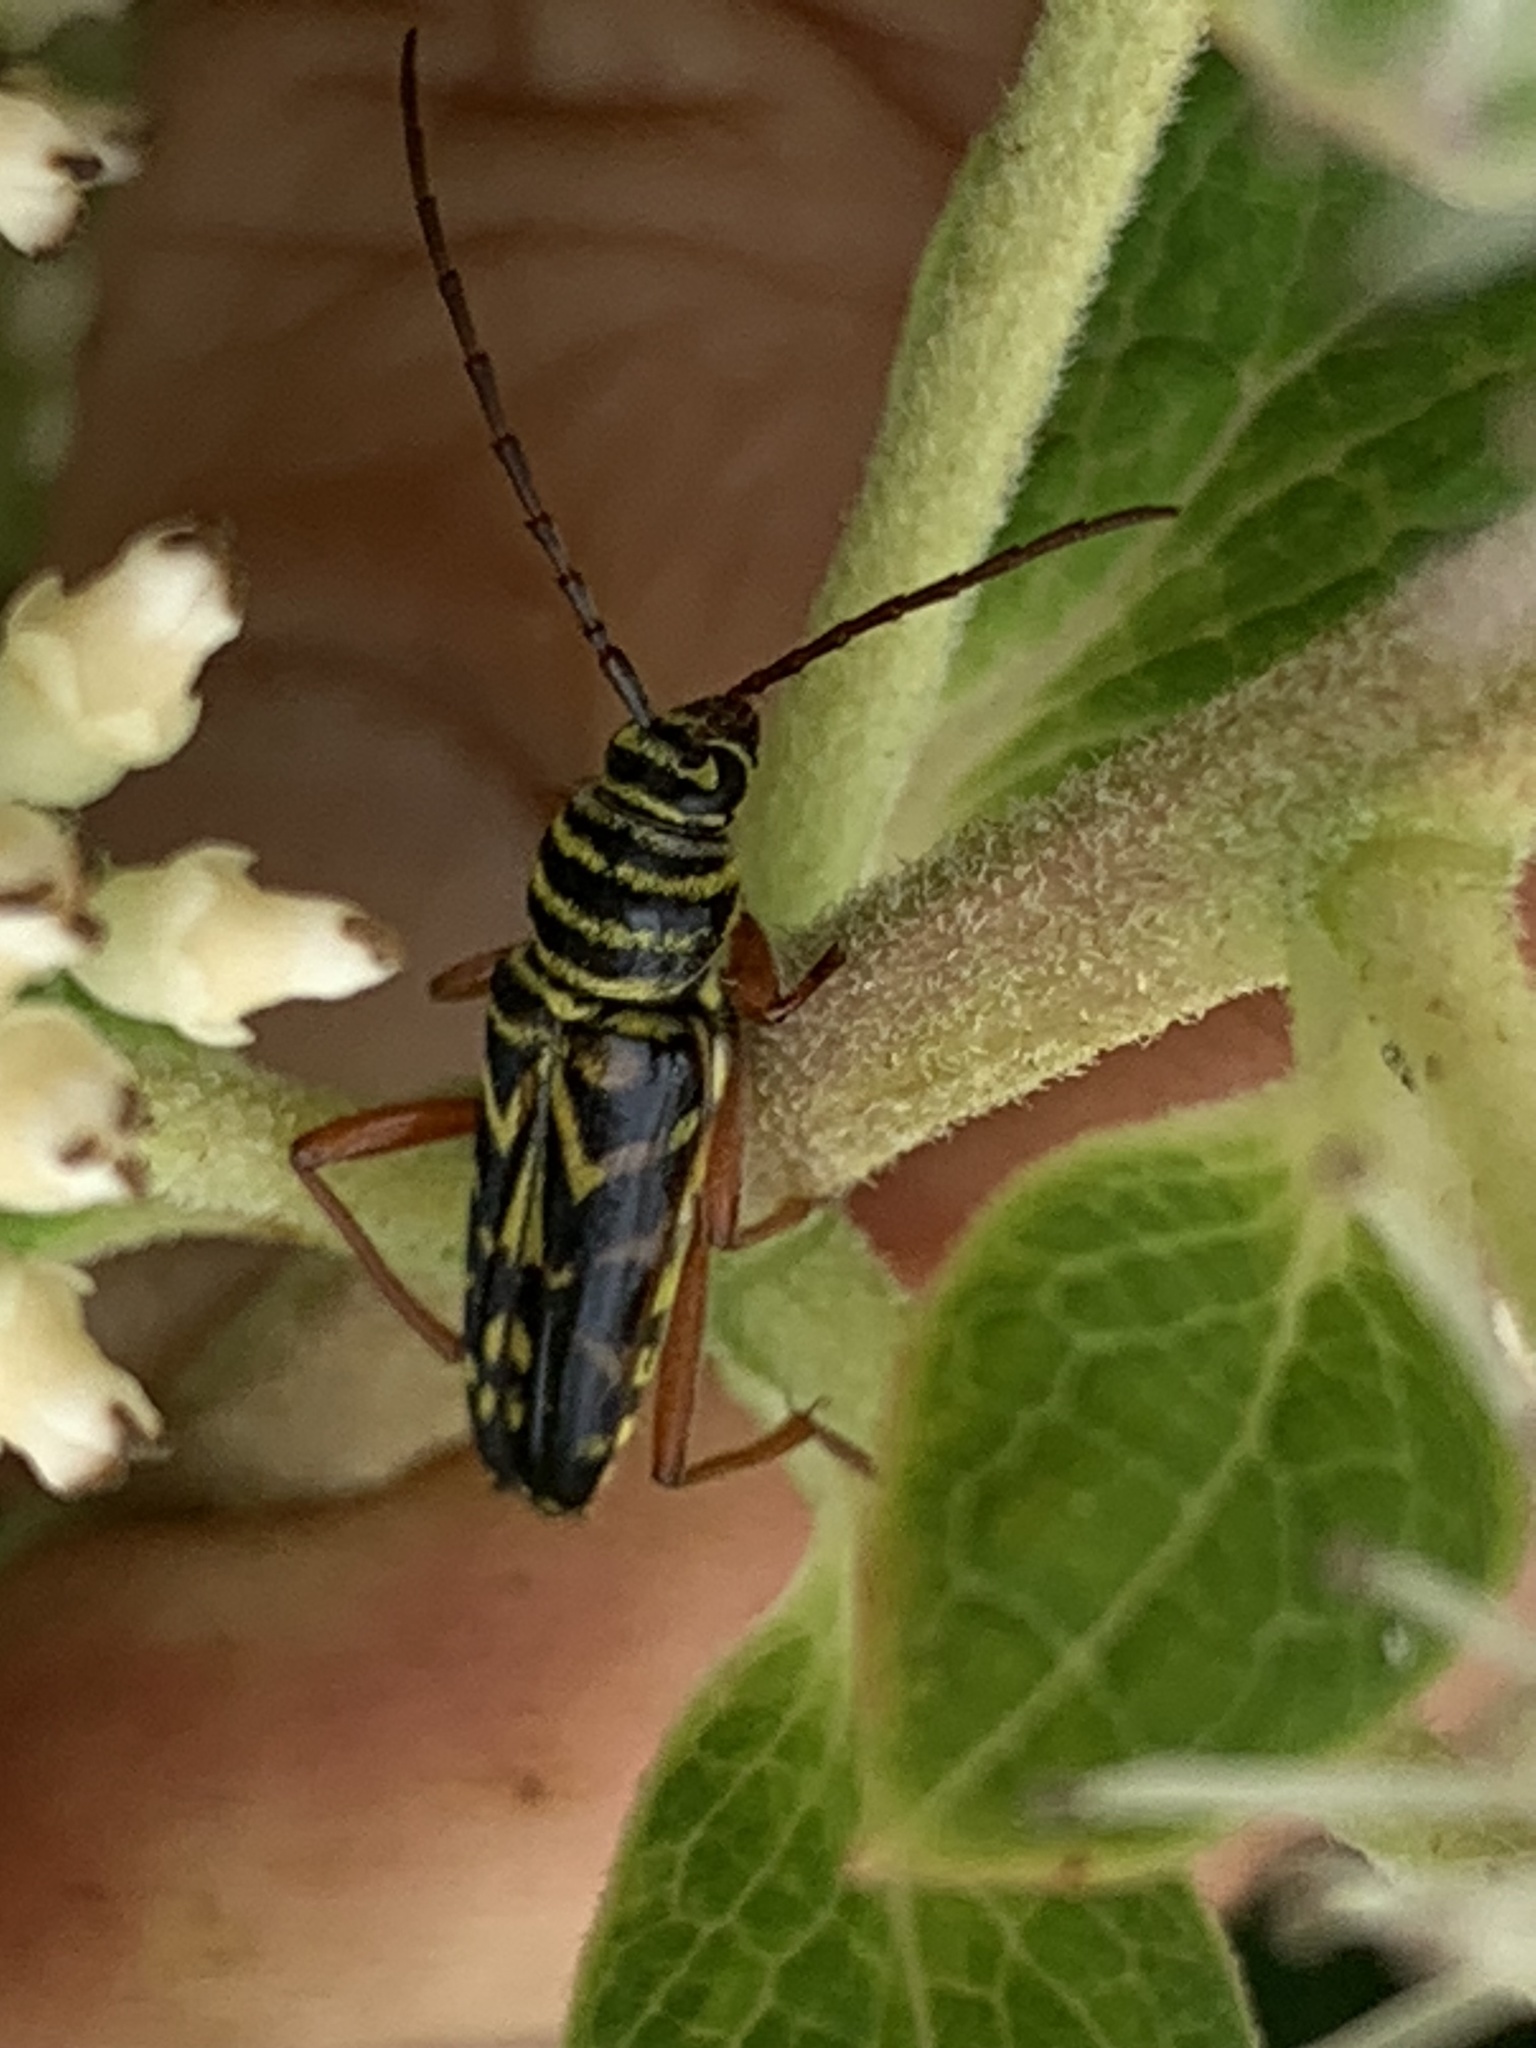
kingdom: Animalia
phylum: Arthropoda
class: Insecta
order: Coleoptera
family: Cerambycidae
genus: Megacyllene
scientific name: Megacyllene robiniae
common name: Locust borer
